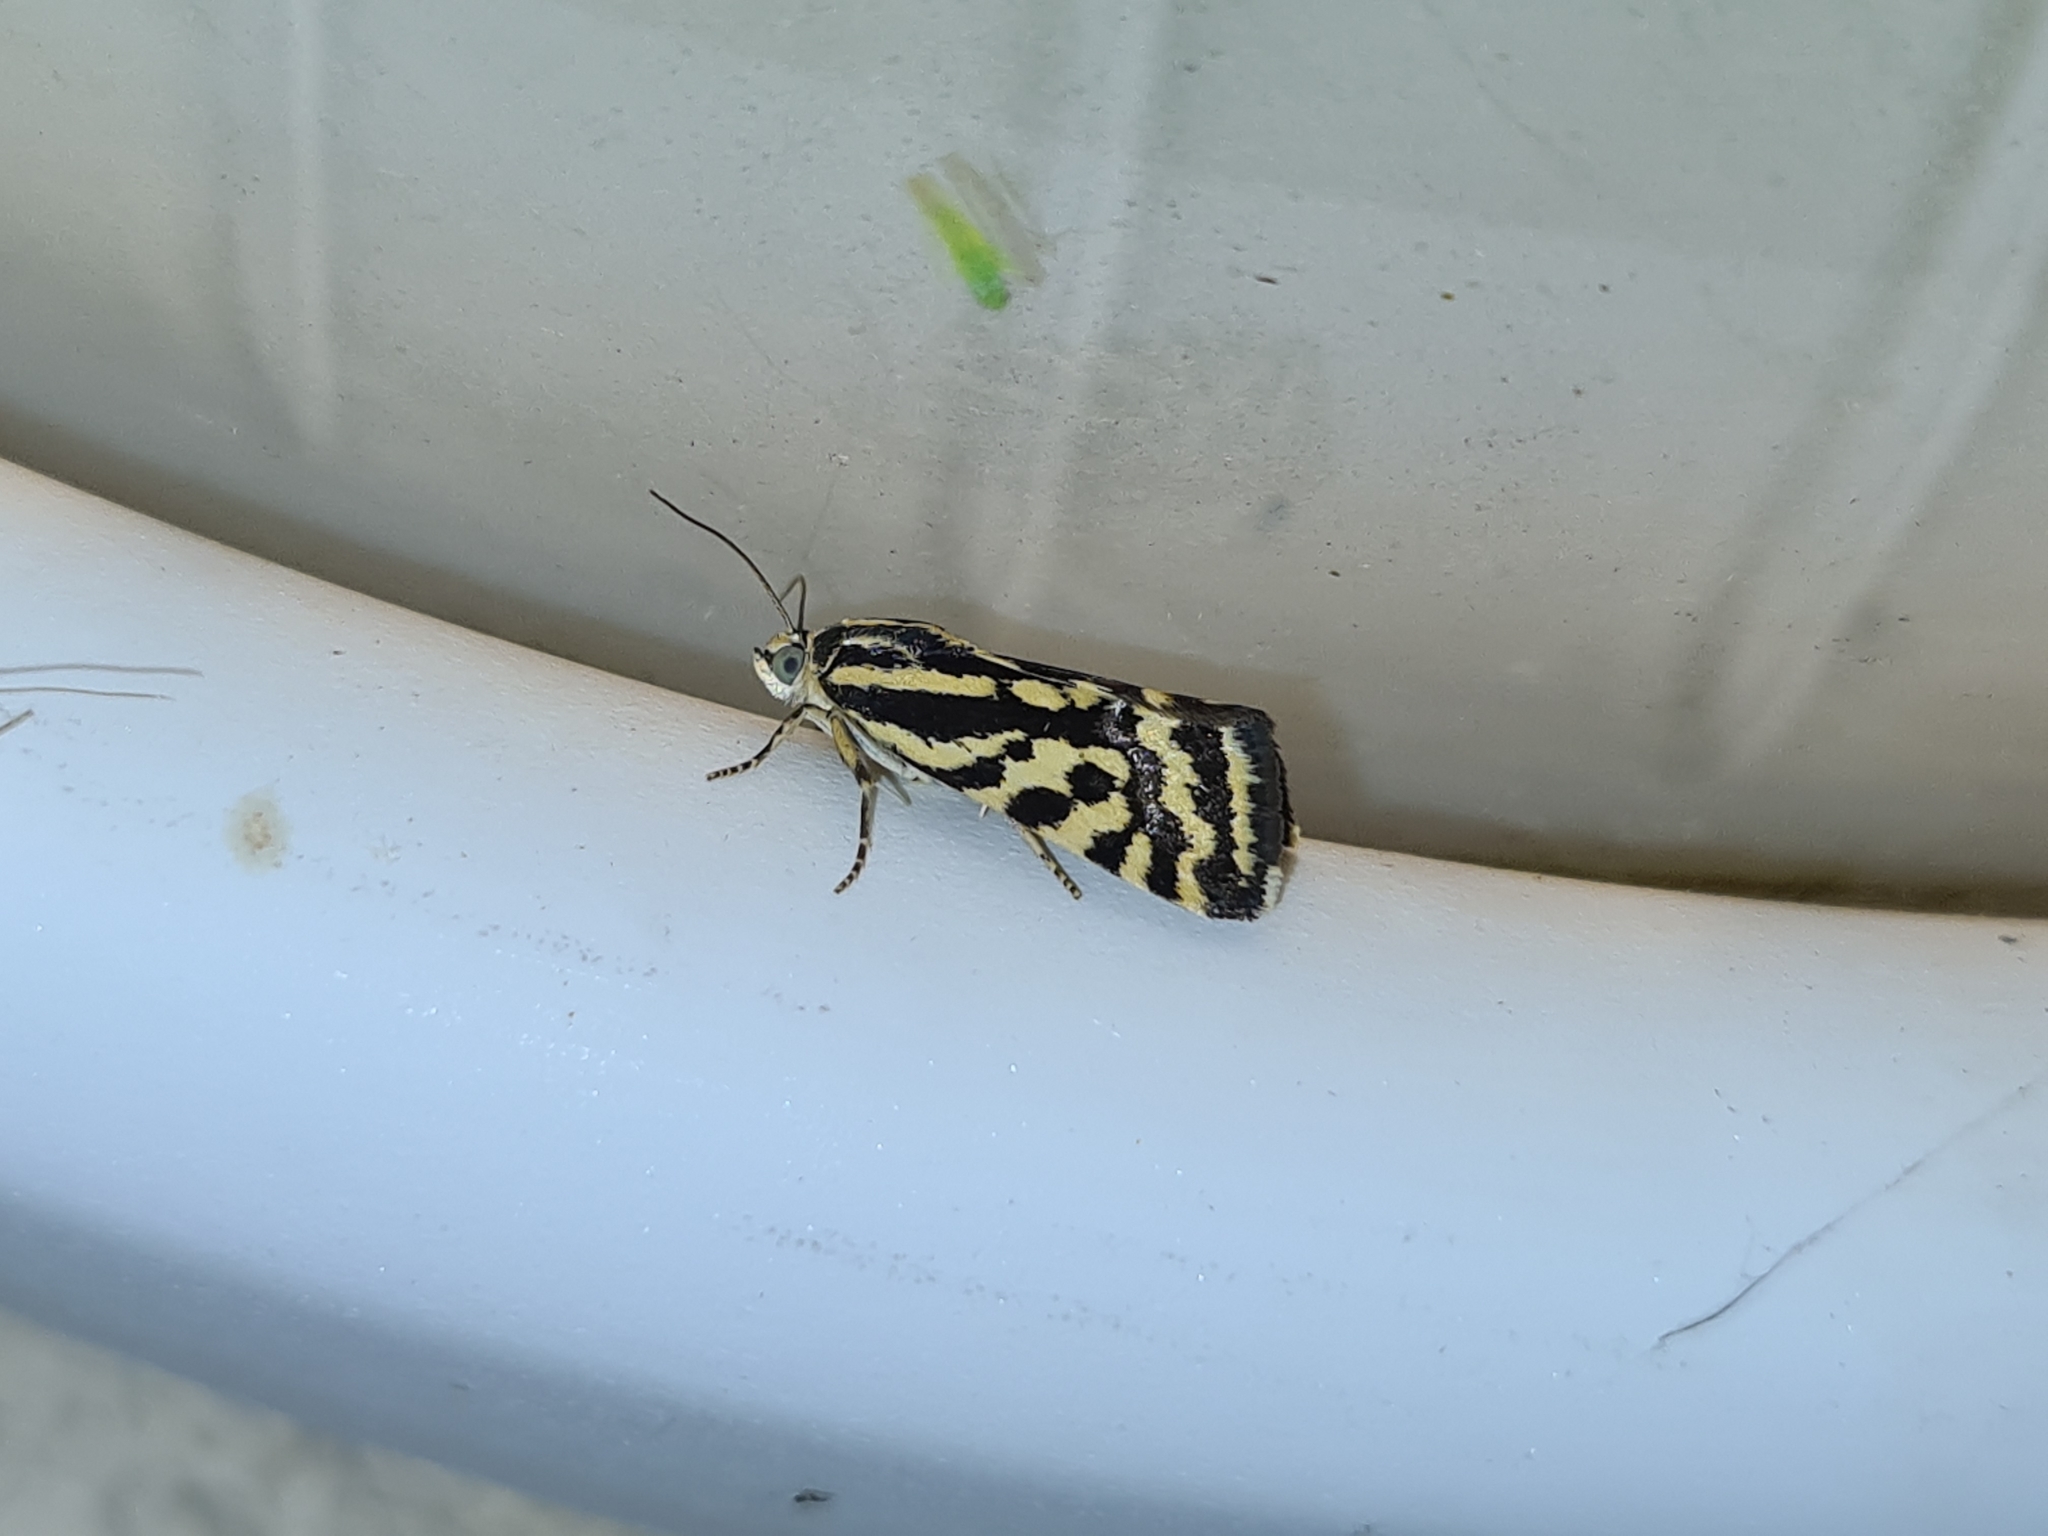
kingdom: Animalia
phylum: Arthropoda
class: Insecta
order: Lepidoptera
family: Noctuidae
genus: Acontia
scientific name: Acontia trabealis
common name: Spotted sulphur
